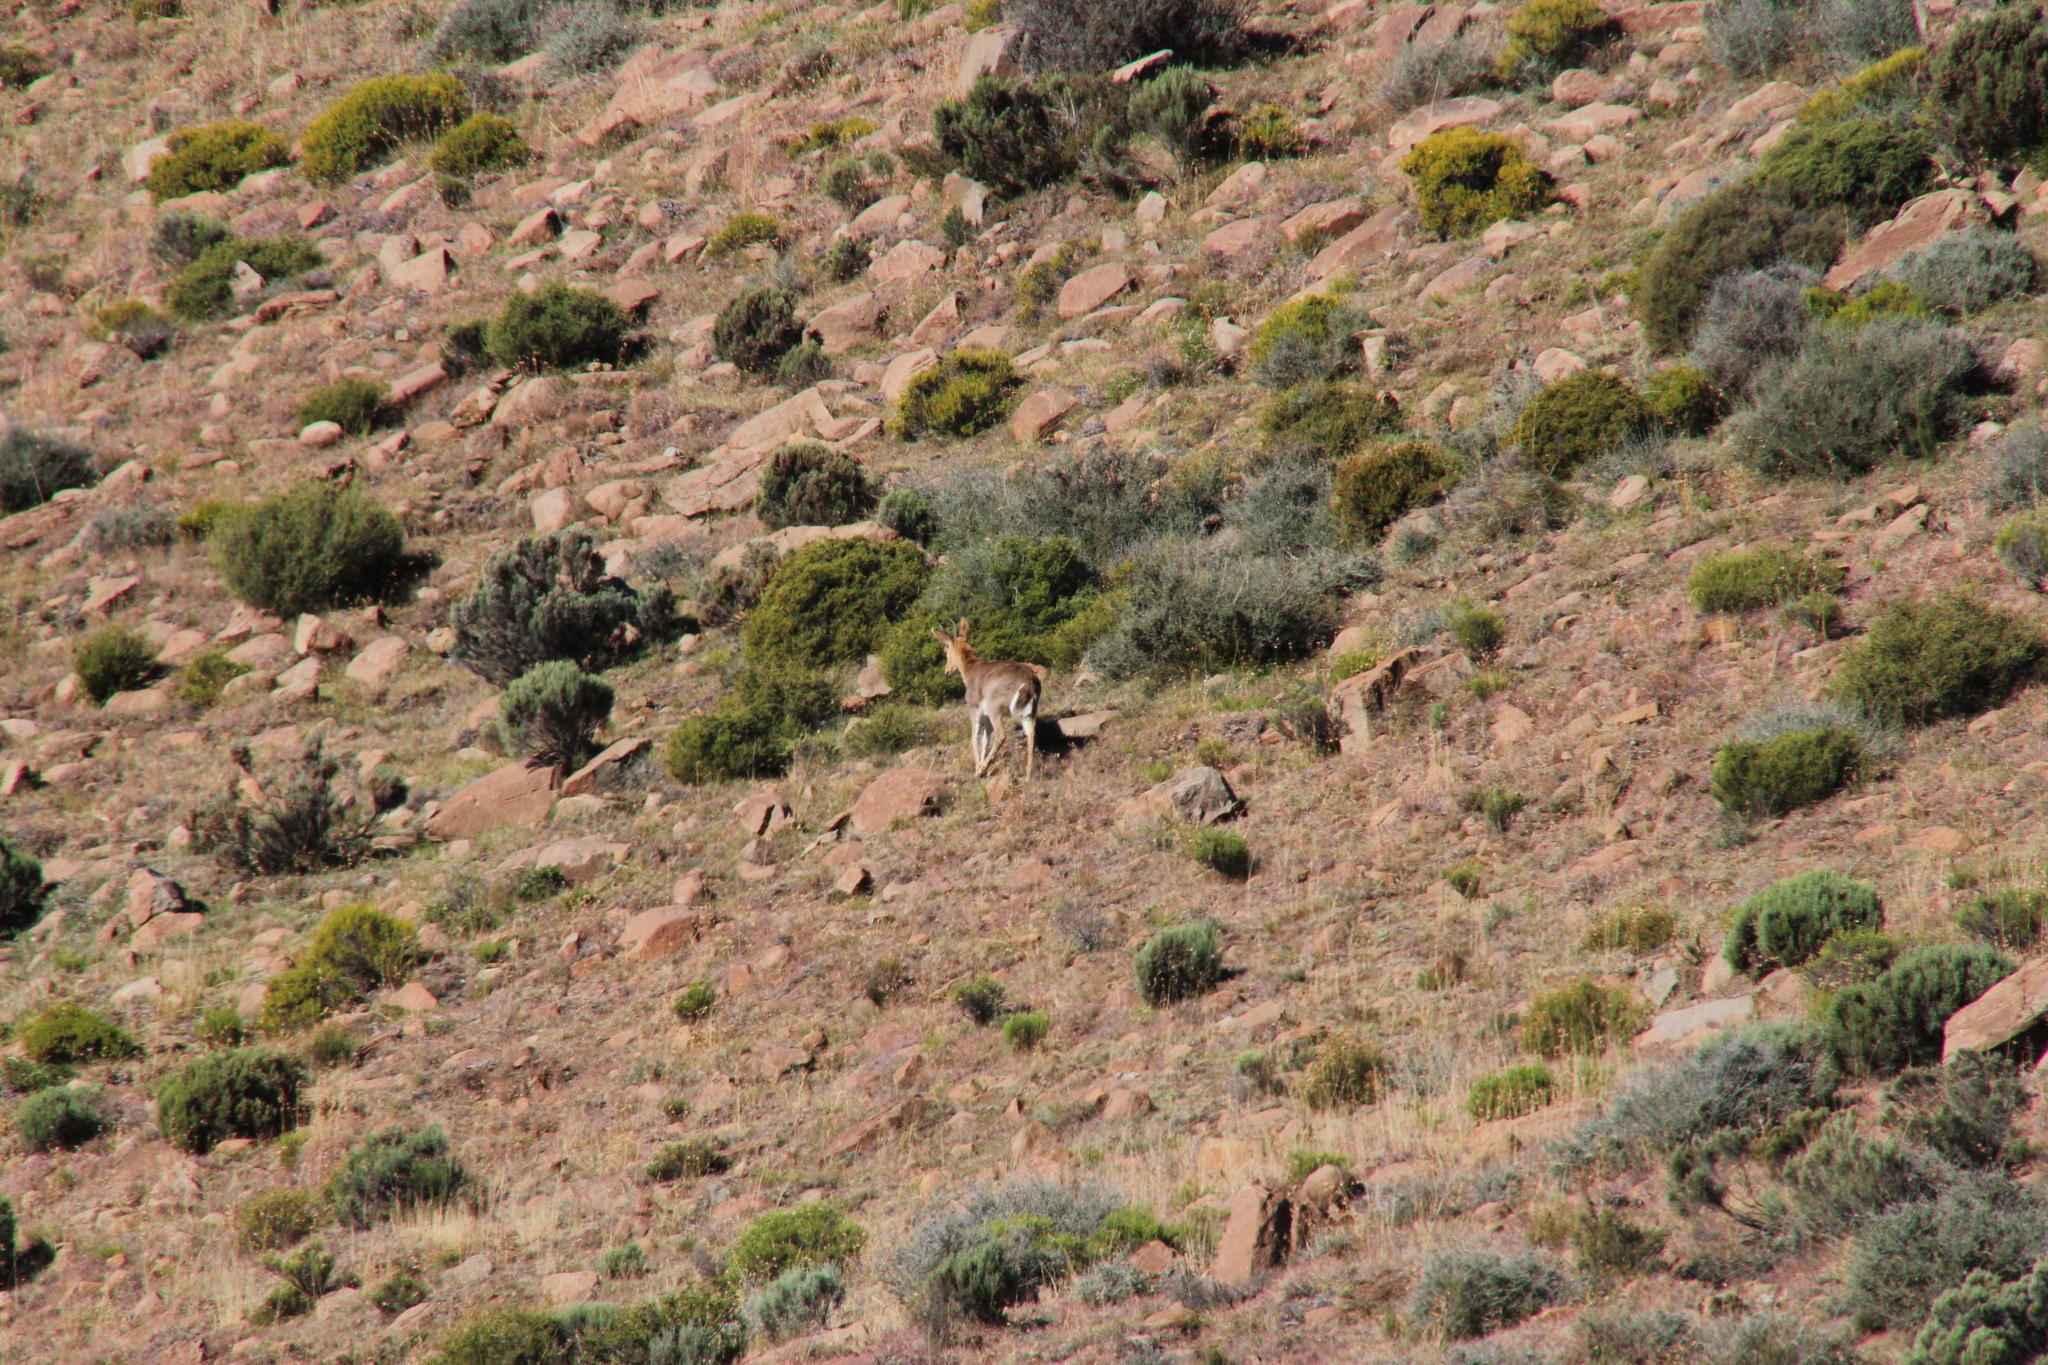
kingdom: Animalia
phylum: Chordata
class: Mammalia
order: Artiodactyla
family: Bovidae
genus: Redunca
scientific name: Redunca fulvorufula
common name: Mountain reedbuck
